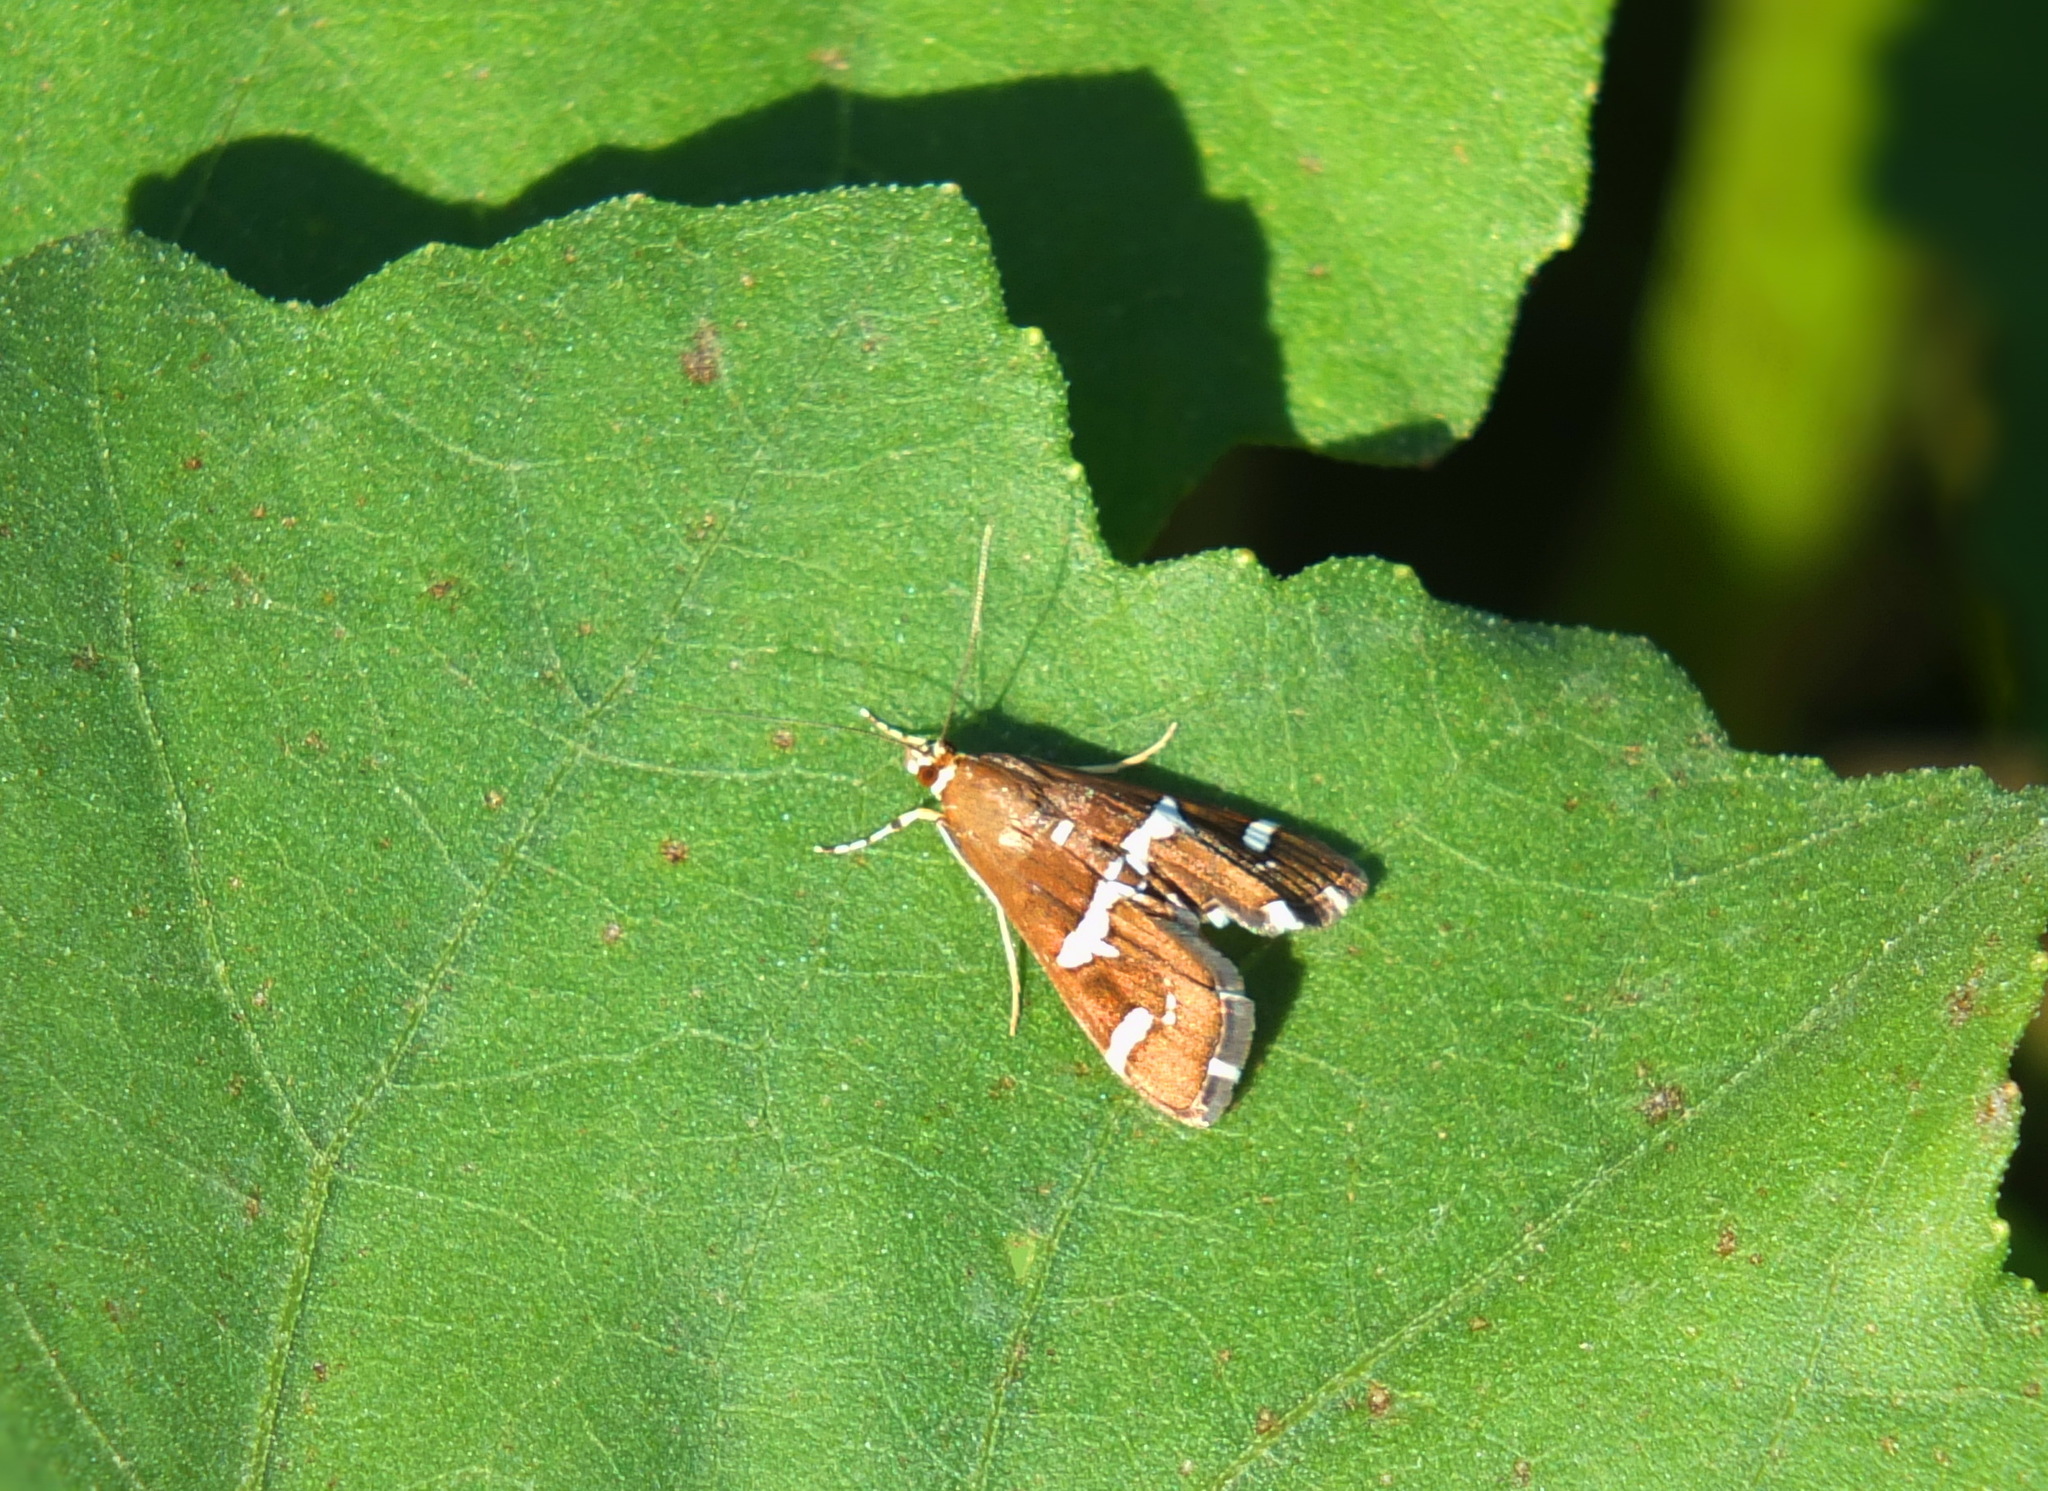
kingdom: Animalia
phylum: Arthropoda
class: Insecta
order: Lepidoptera
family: Crambidae
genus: Spoladea
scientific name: Spoladea recurvalis
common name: Beet webworm moth
